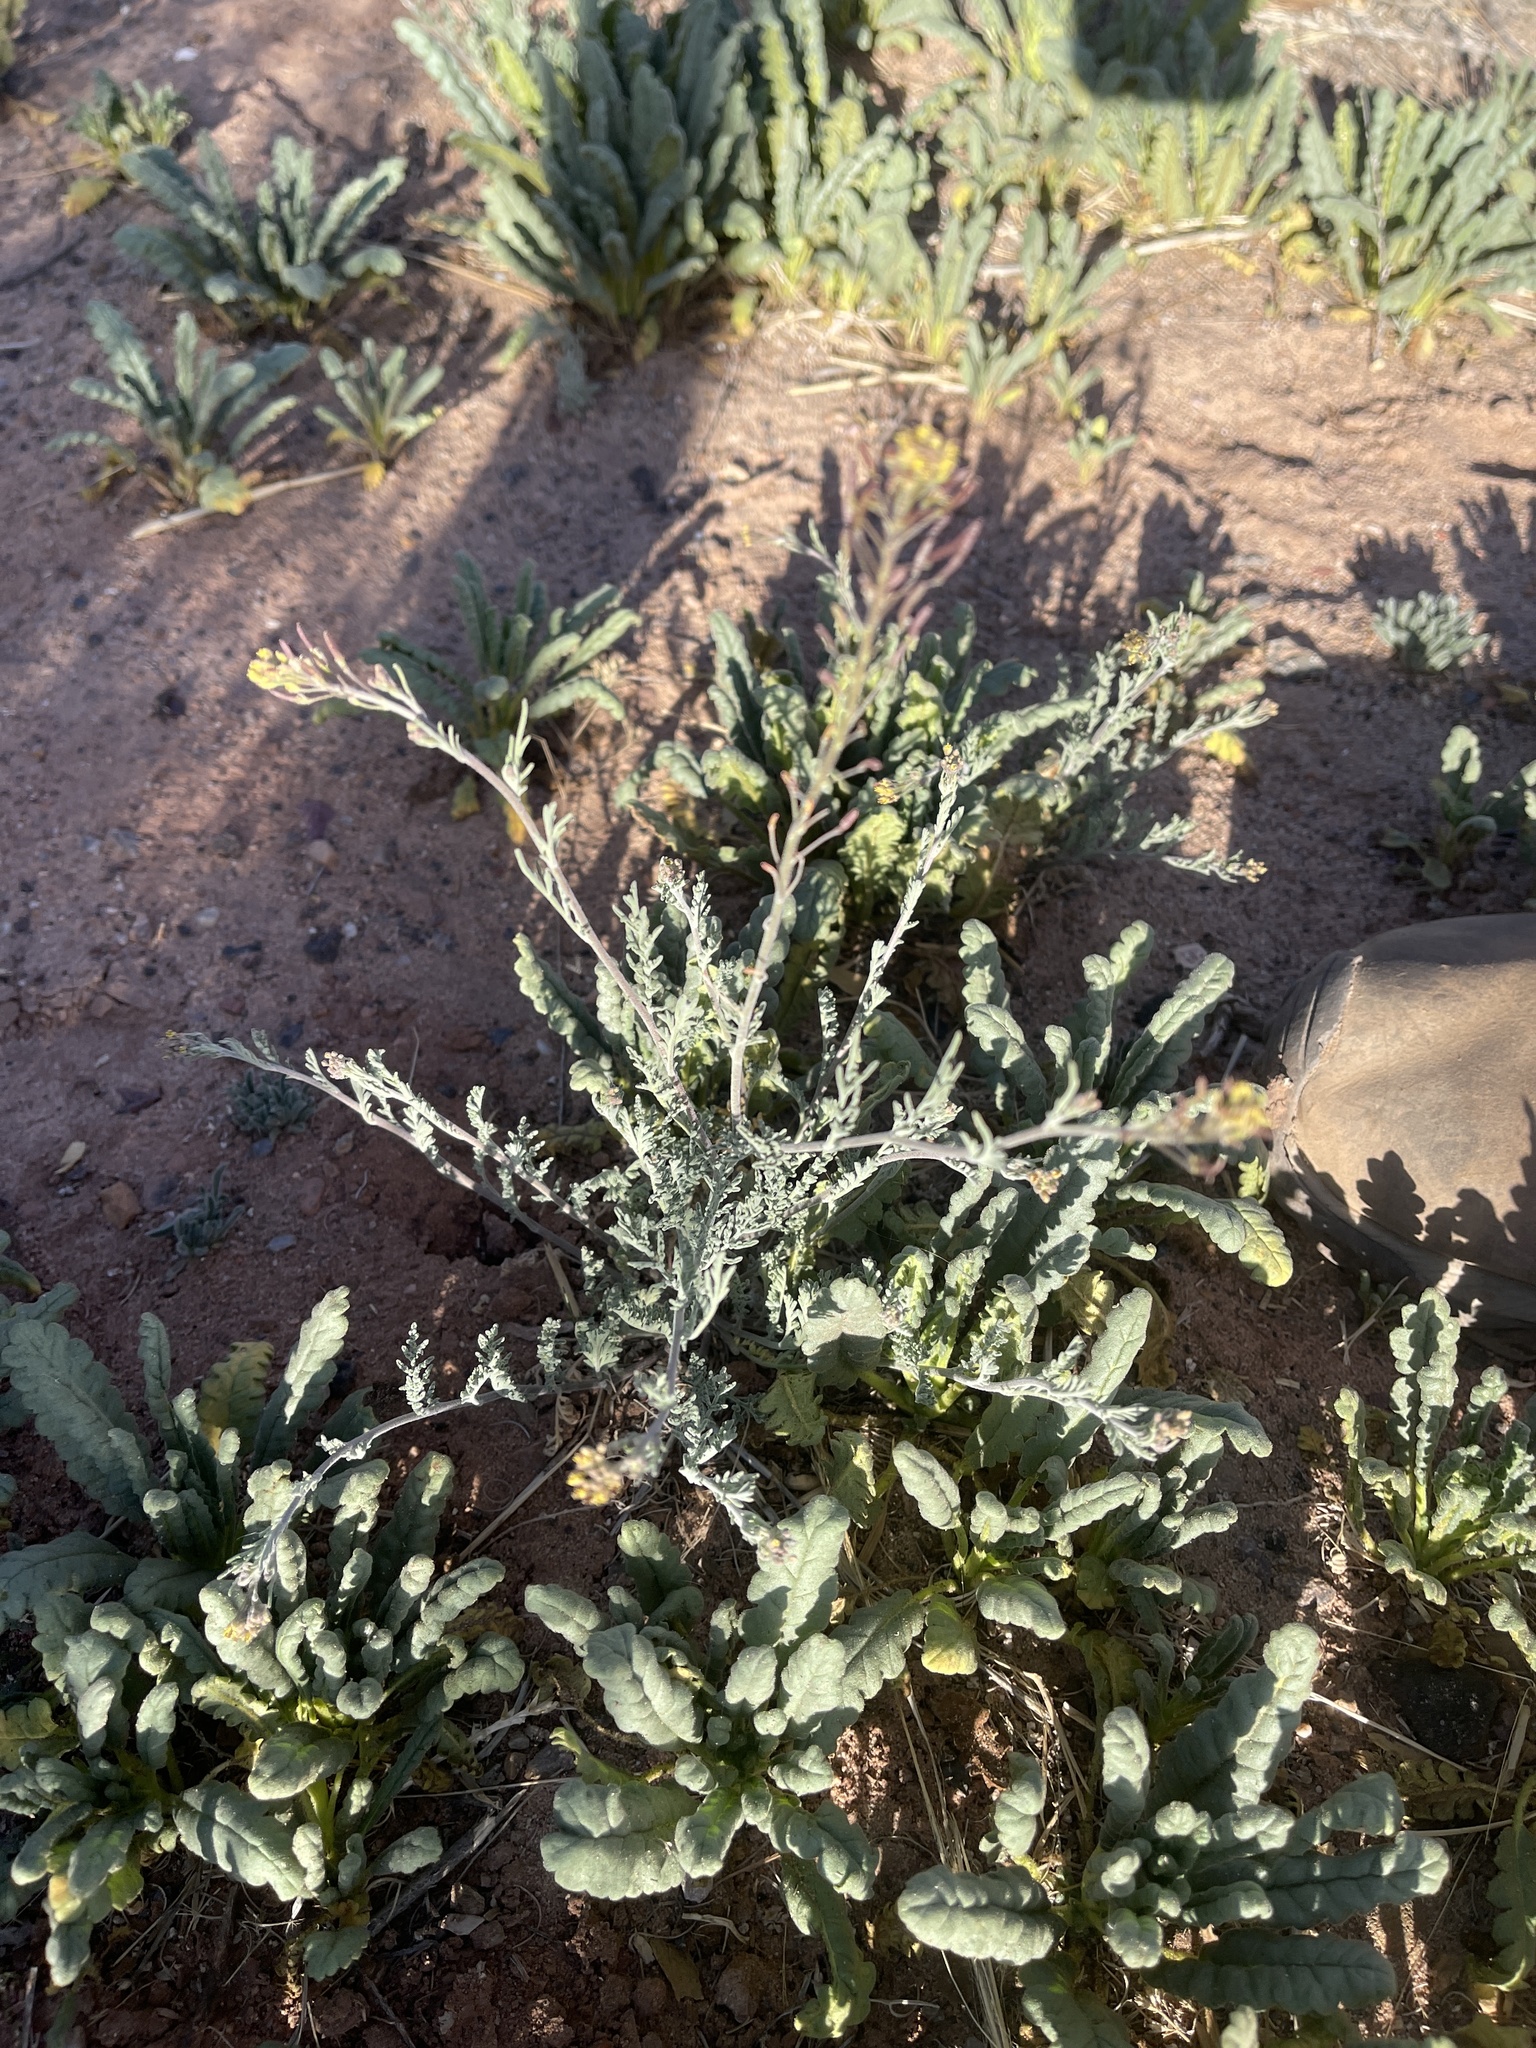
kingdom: Plantae
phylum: Tracheophyta
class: Magnoliopsida
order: Brassicales
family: Brassicaceae
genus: Descurainia
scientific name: Descurainia pinnata
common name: Western tansy mustard
